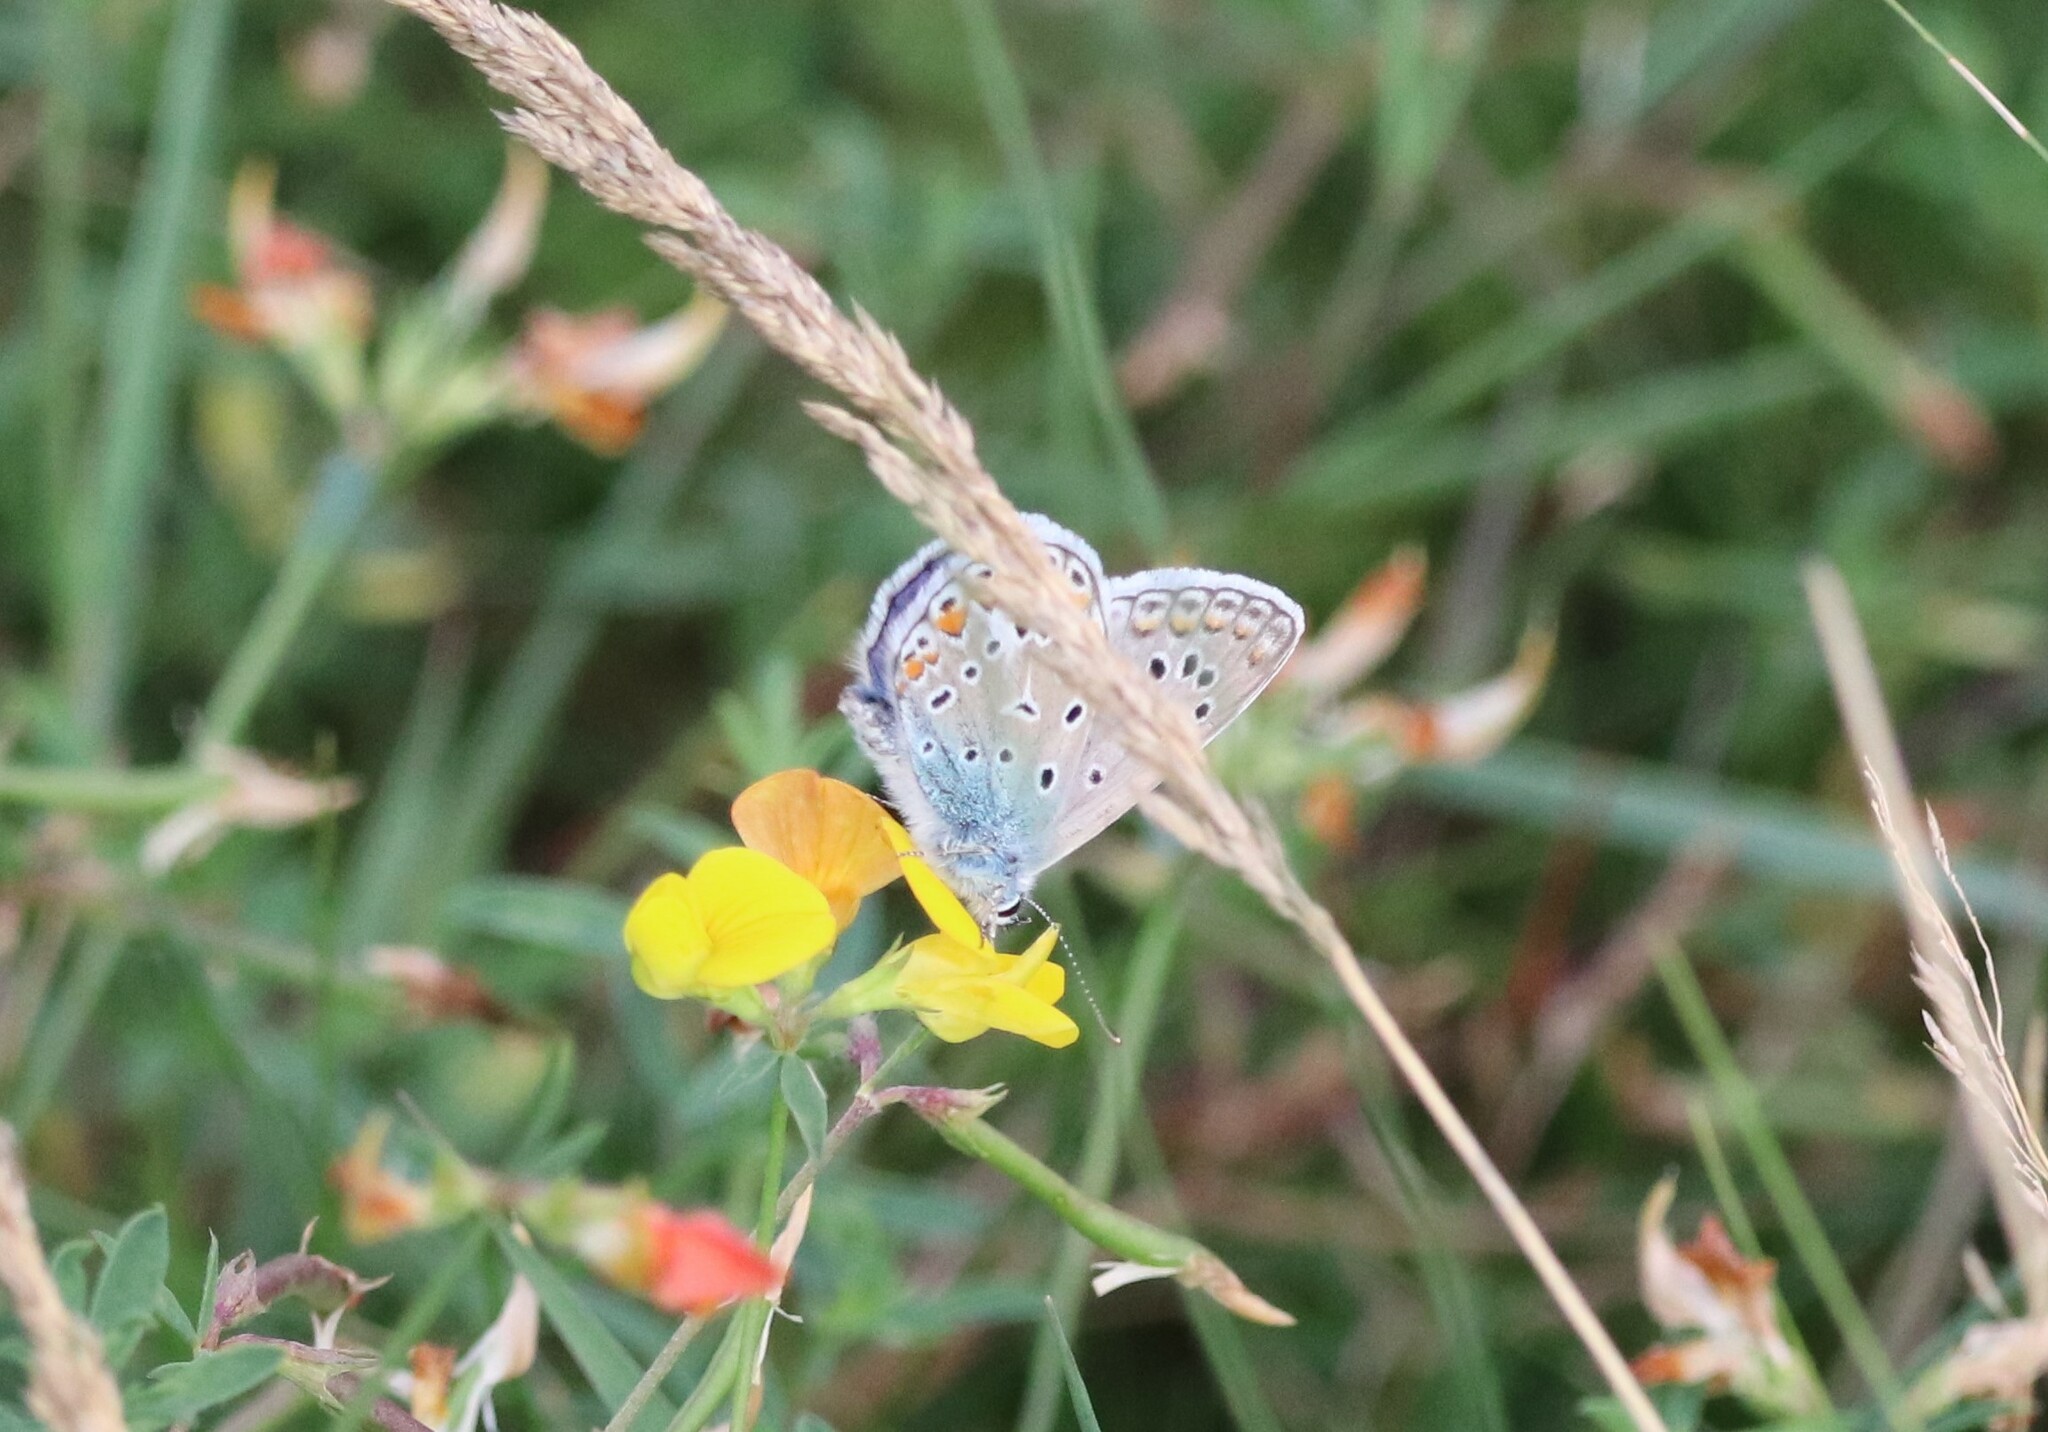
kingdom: Animalia
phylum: Arthropoda
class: Insecta
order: Lepidoptera
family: Lycaenidae
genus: Polyommatus
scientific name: Polyommatus icarus
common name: Common blue
